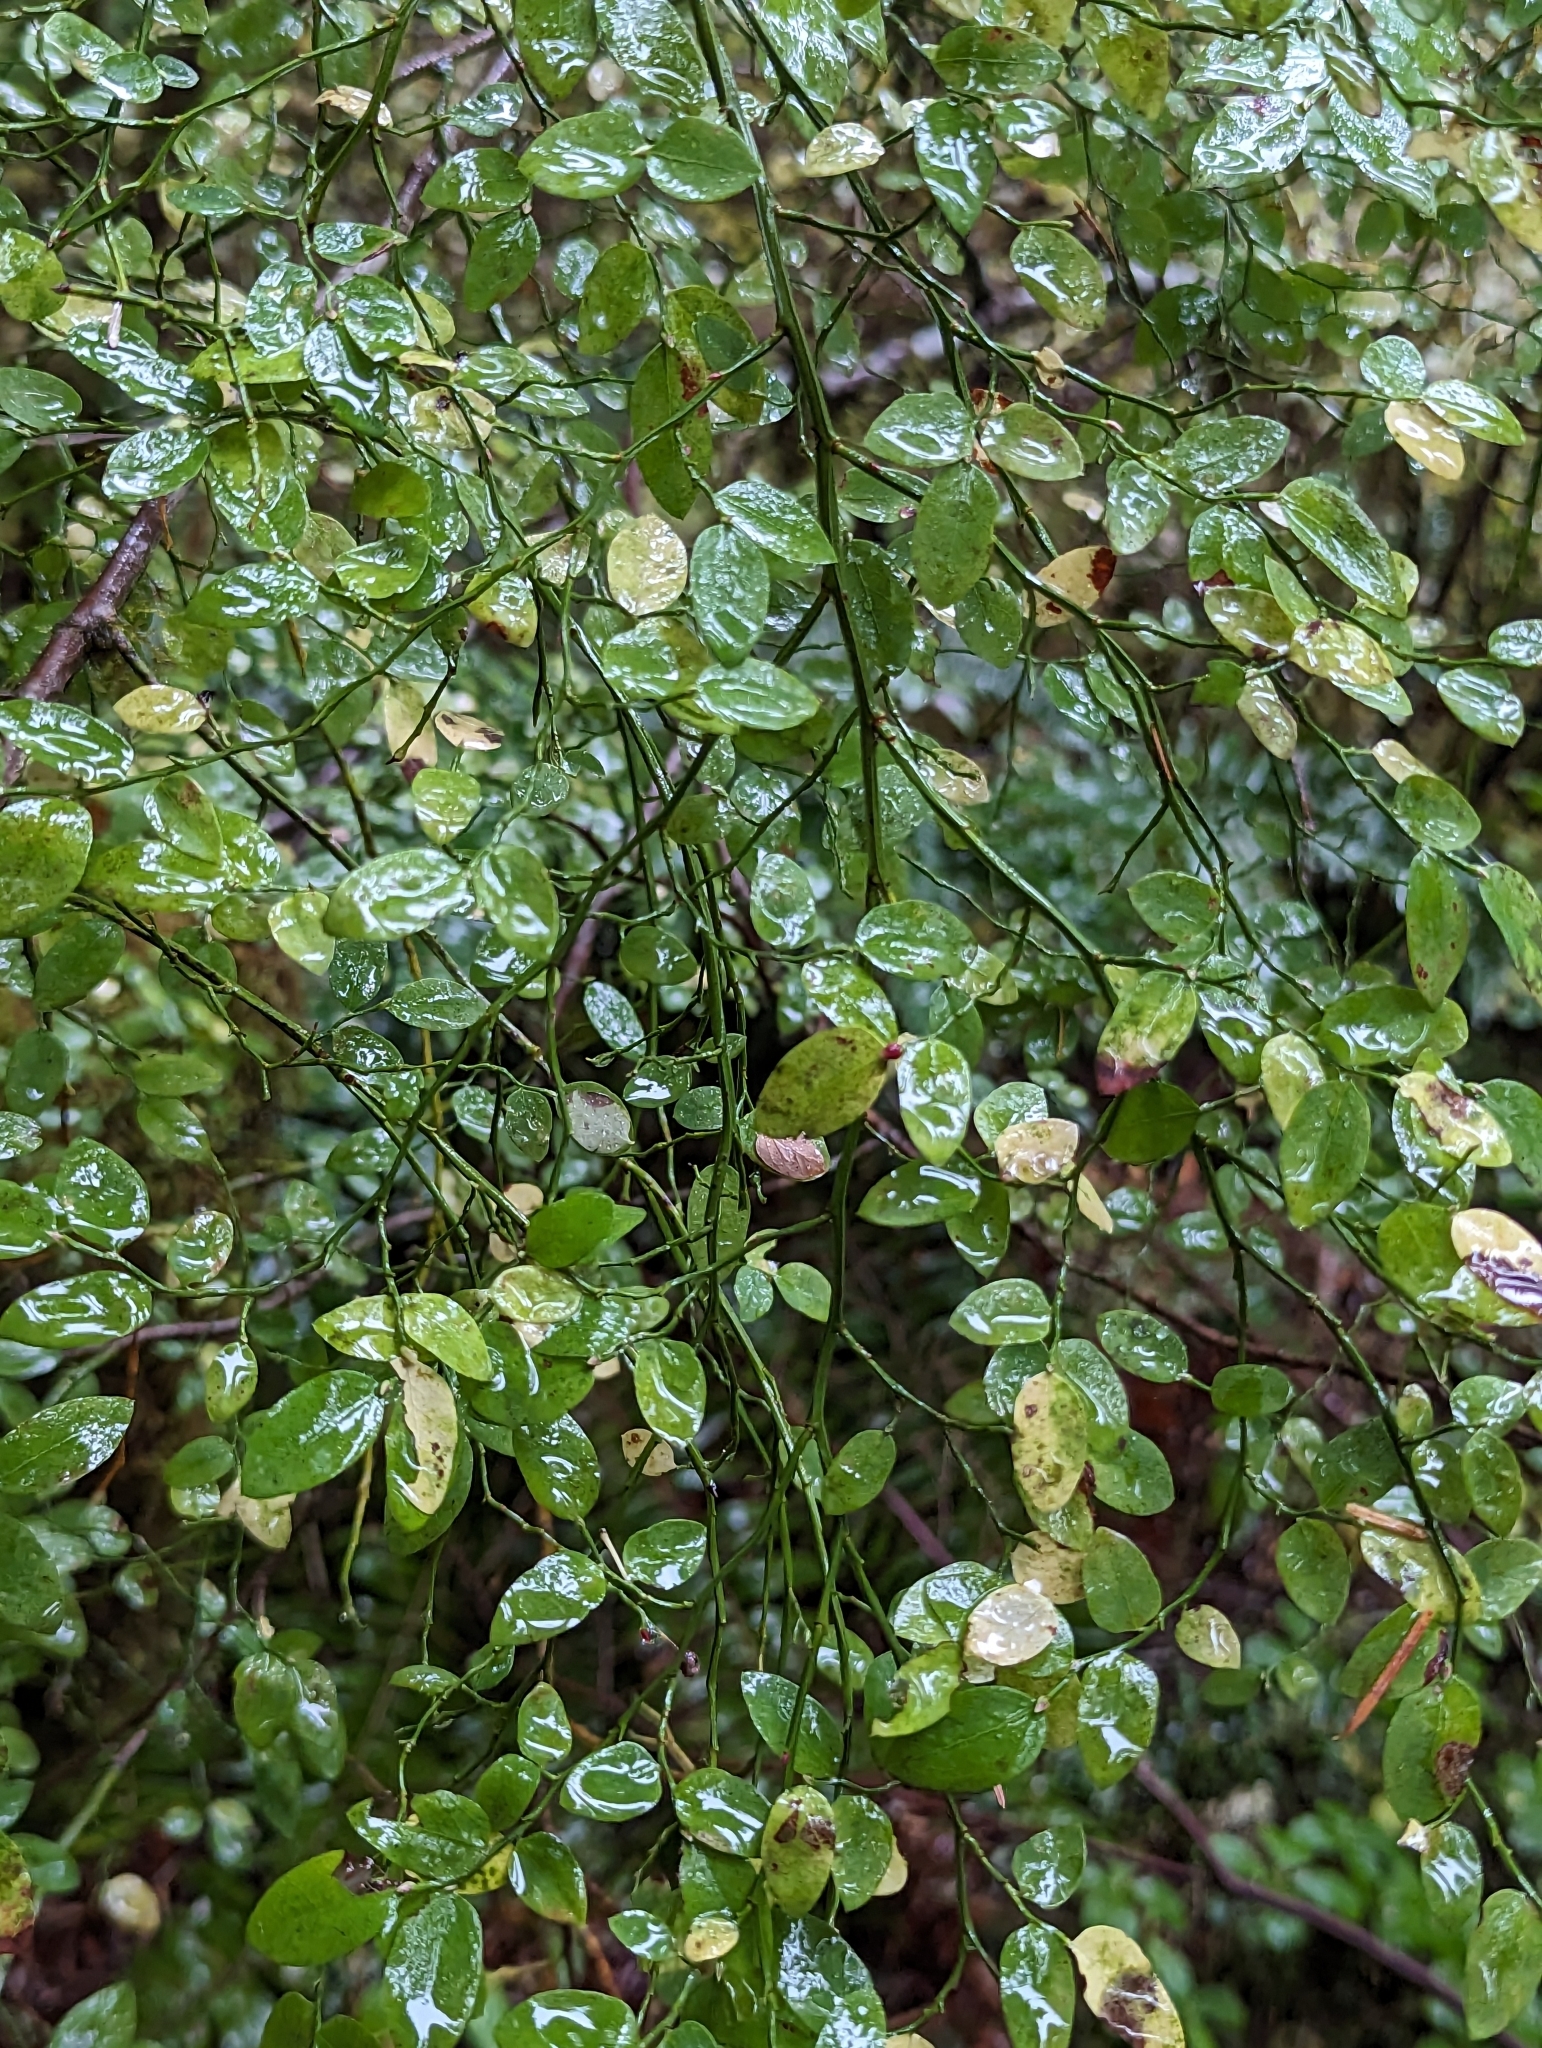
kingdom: Plantae
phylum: Tracheophyta
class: Magnoliopsida
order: Ericales
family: Ericaceae
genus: Vaccinium
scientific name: Vaccinium parvifolium
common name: Red-huckleberry
